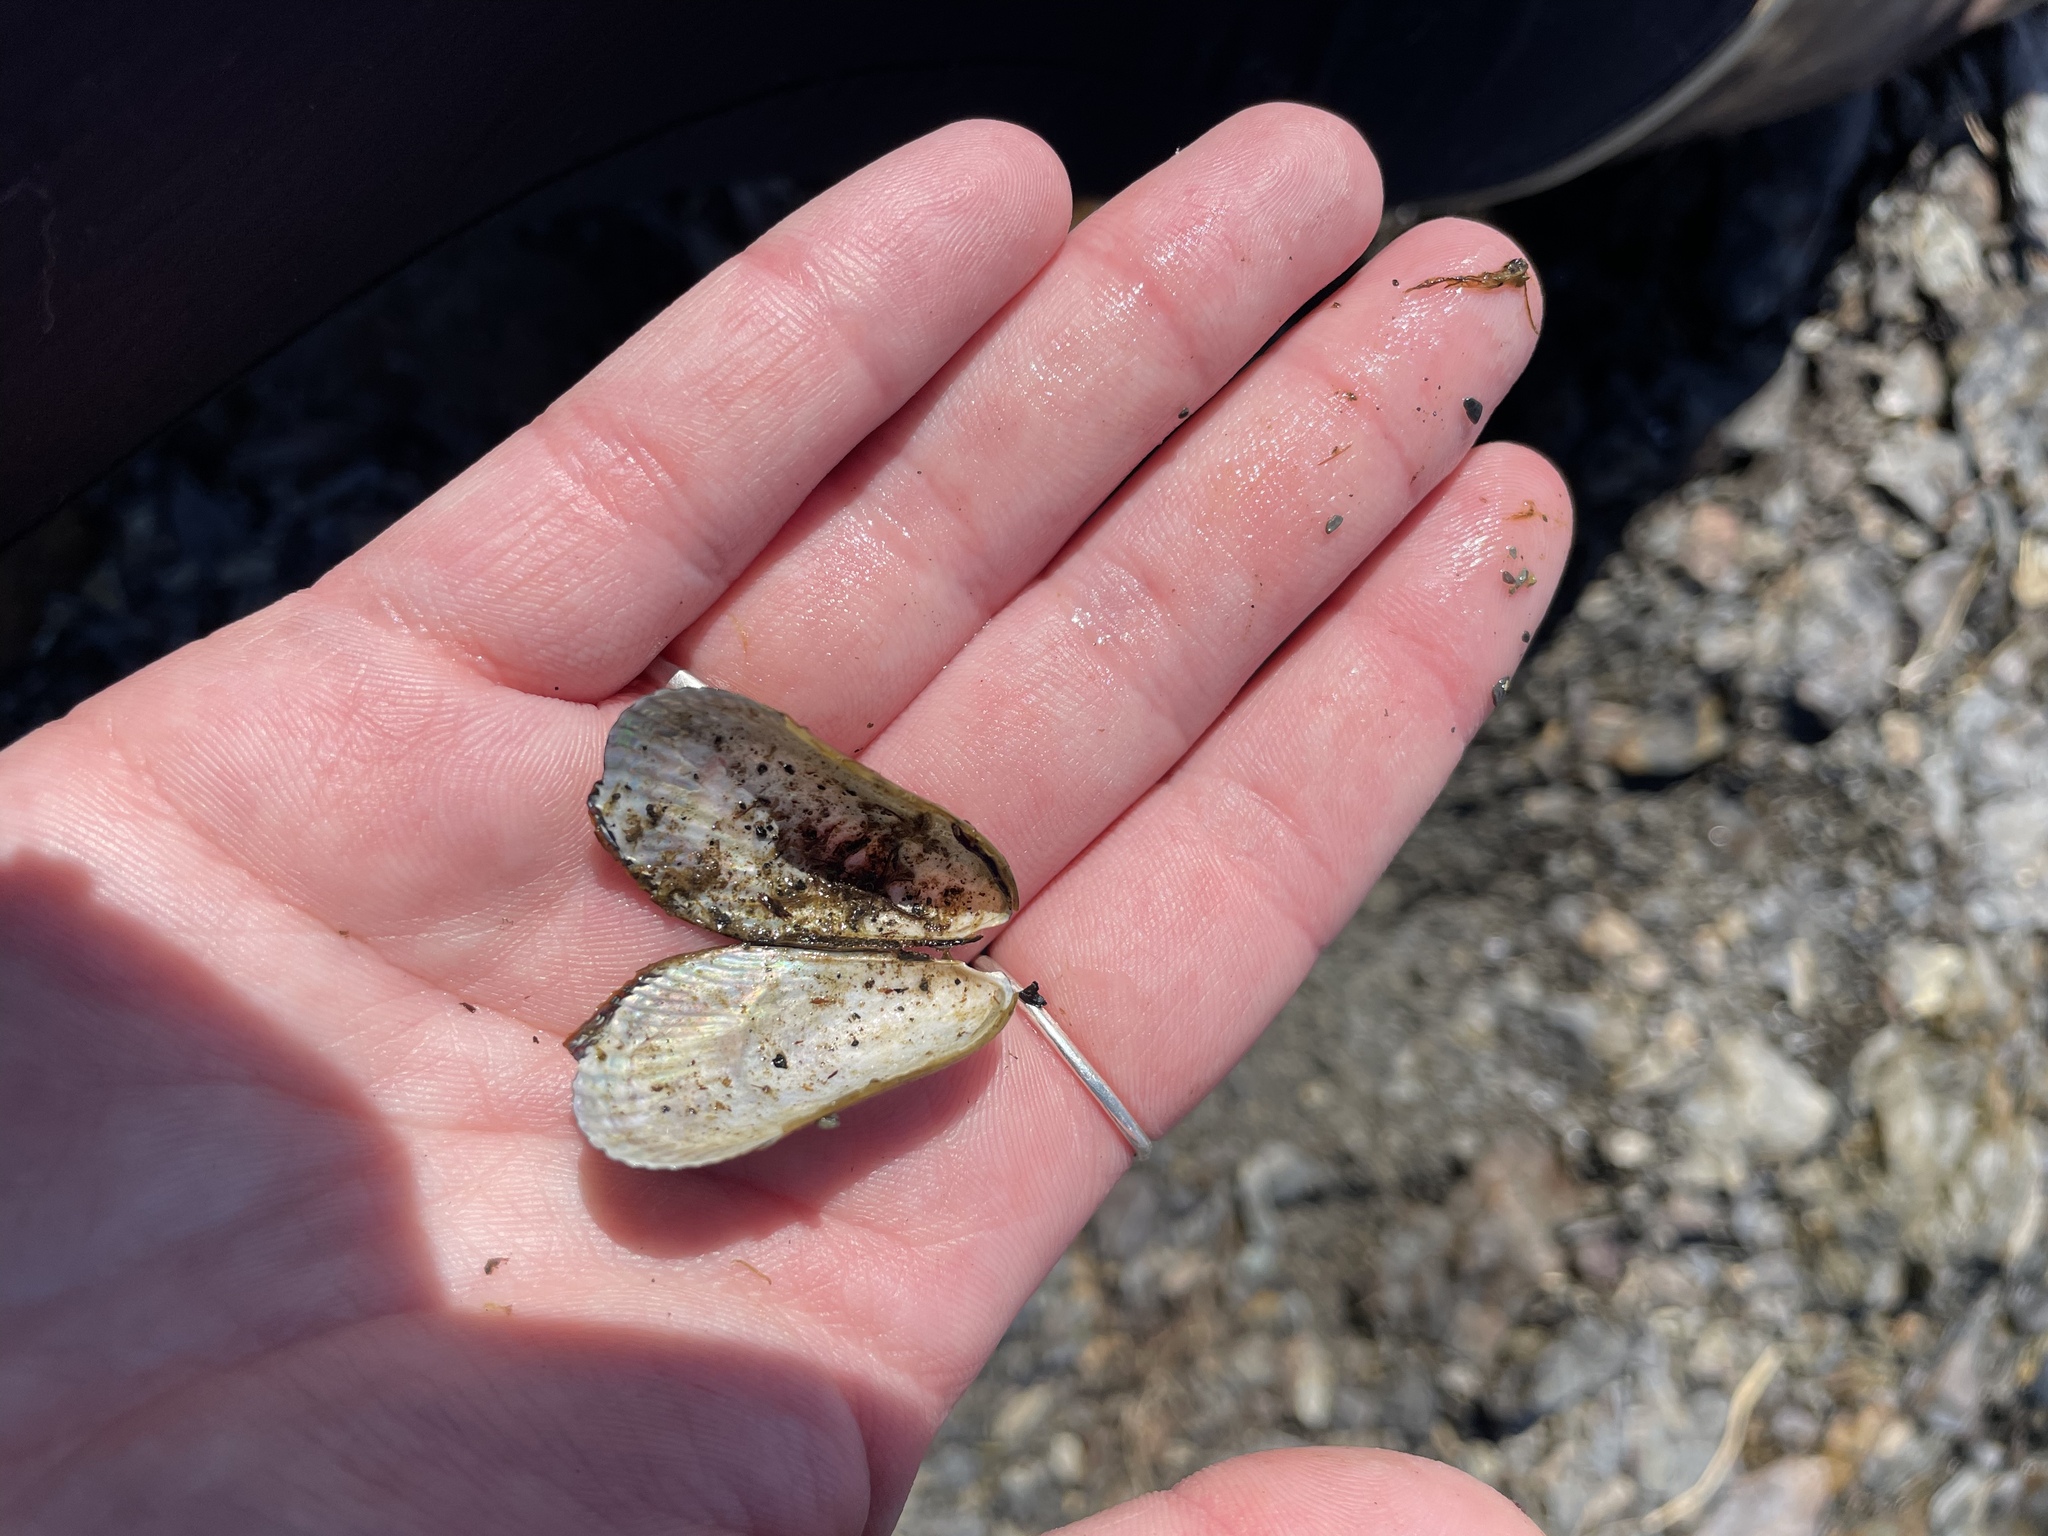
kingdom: Animalia
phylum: Mollusca
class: Bivalvia
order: Mytilida
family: Mytilidae
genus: Geukensia
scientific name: Geukensia demissa
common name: Ribbed mussel
